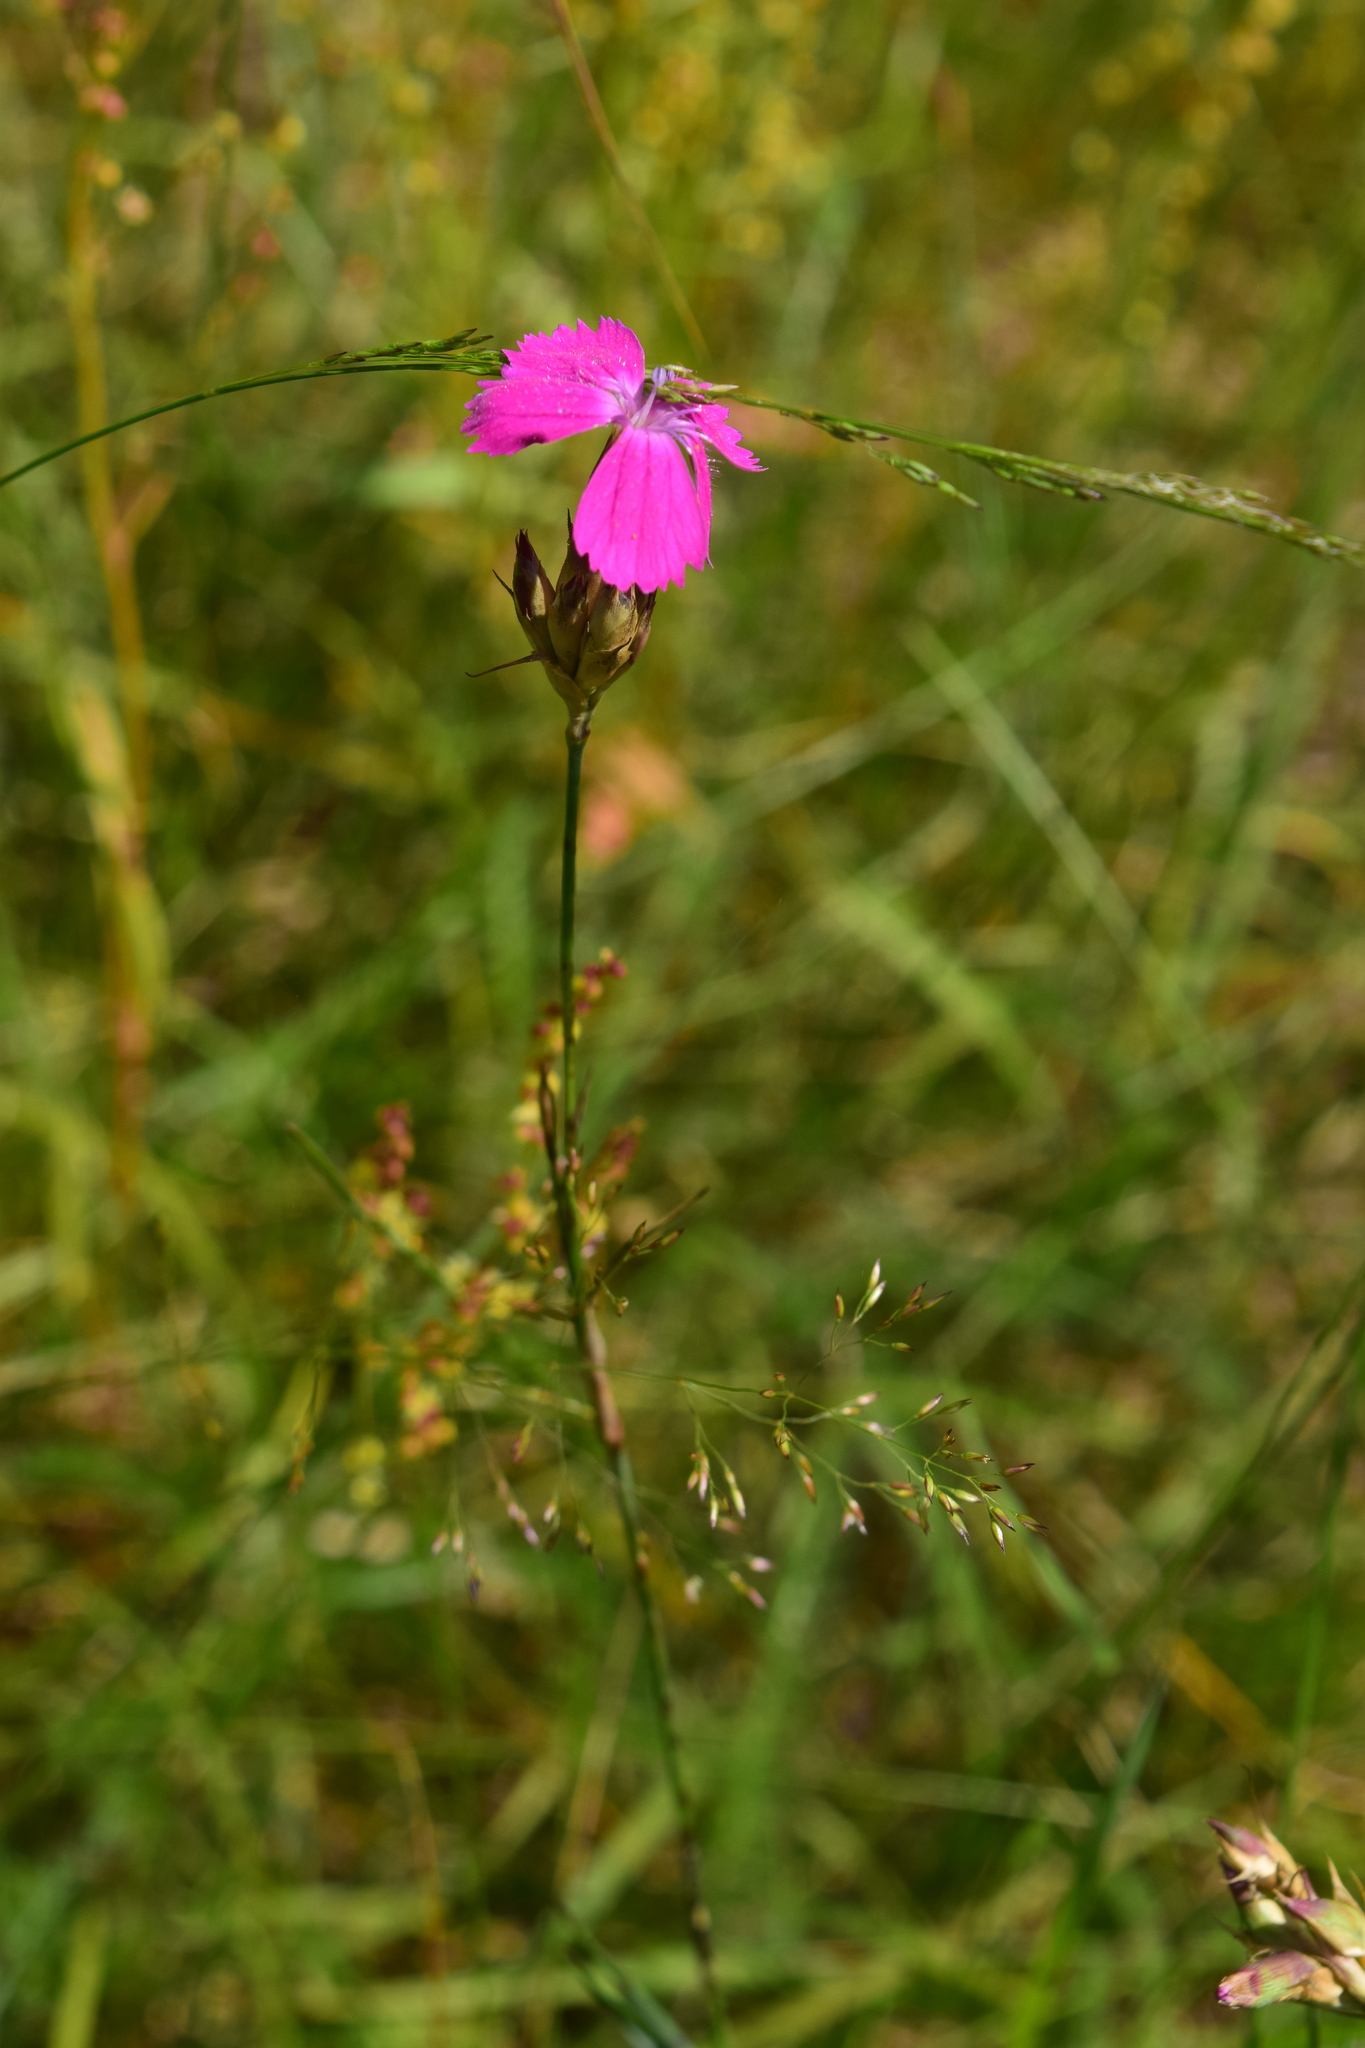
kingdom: Plantae
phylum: Tracheophyta
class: Magnoliopsida
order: Caryophyllales
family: Caryophyllaceae
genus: Dianthus
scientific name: Dianthus borbasii
